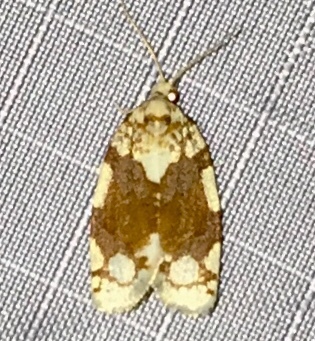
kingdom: Animalia
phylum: Arthropoda
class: Insecta
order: Lepidoptera
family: Tortricidae
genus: Argyrotaenia
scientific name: Argyrotaenia alisellana
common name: White-spotted leafroller moth
